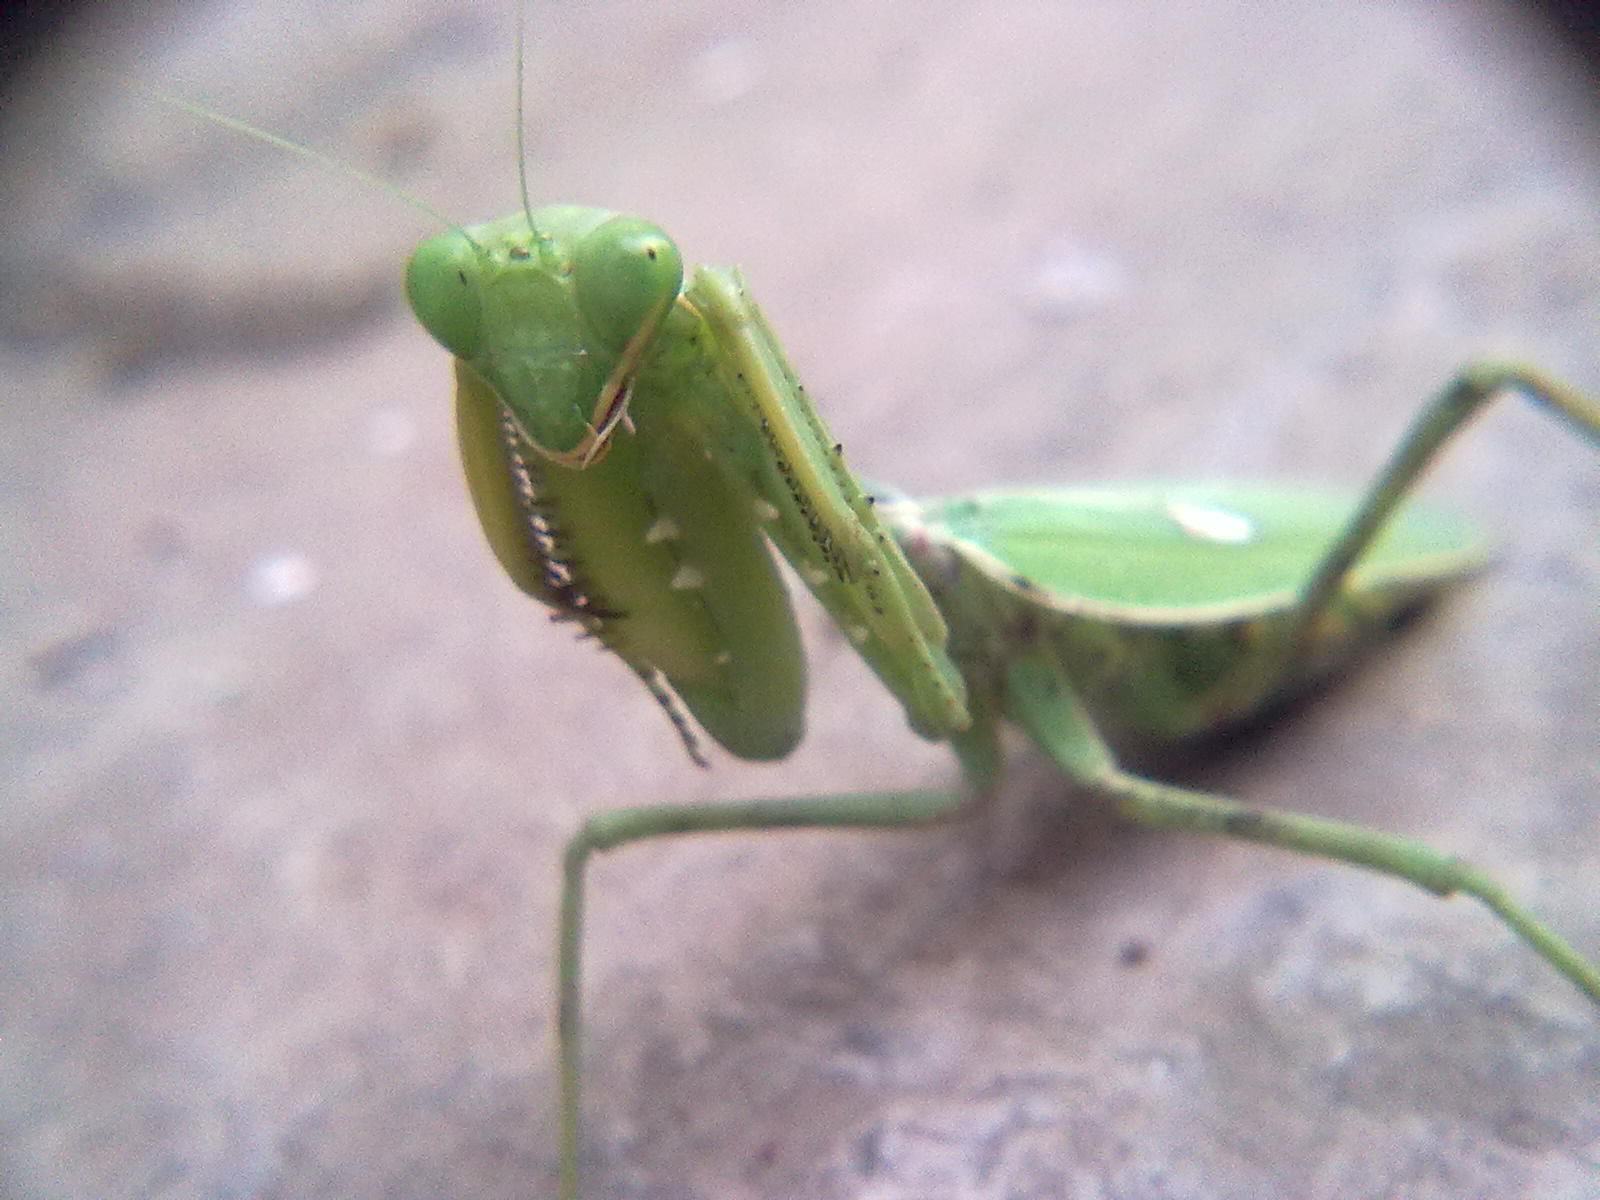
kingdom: Animalia
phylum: Arthropoda
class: Insecta
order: Mantodea
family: Mantidae
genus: Hierodula
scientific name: Hierodula coarctata
